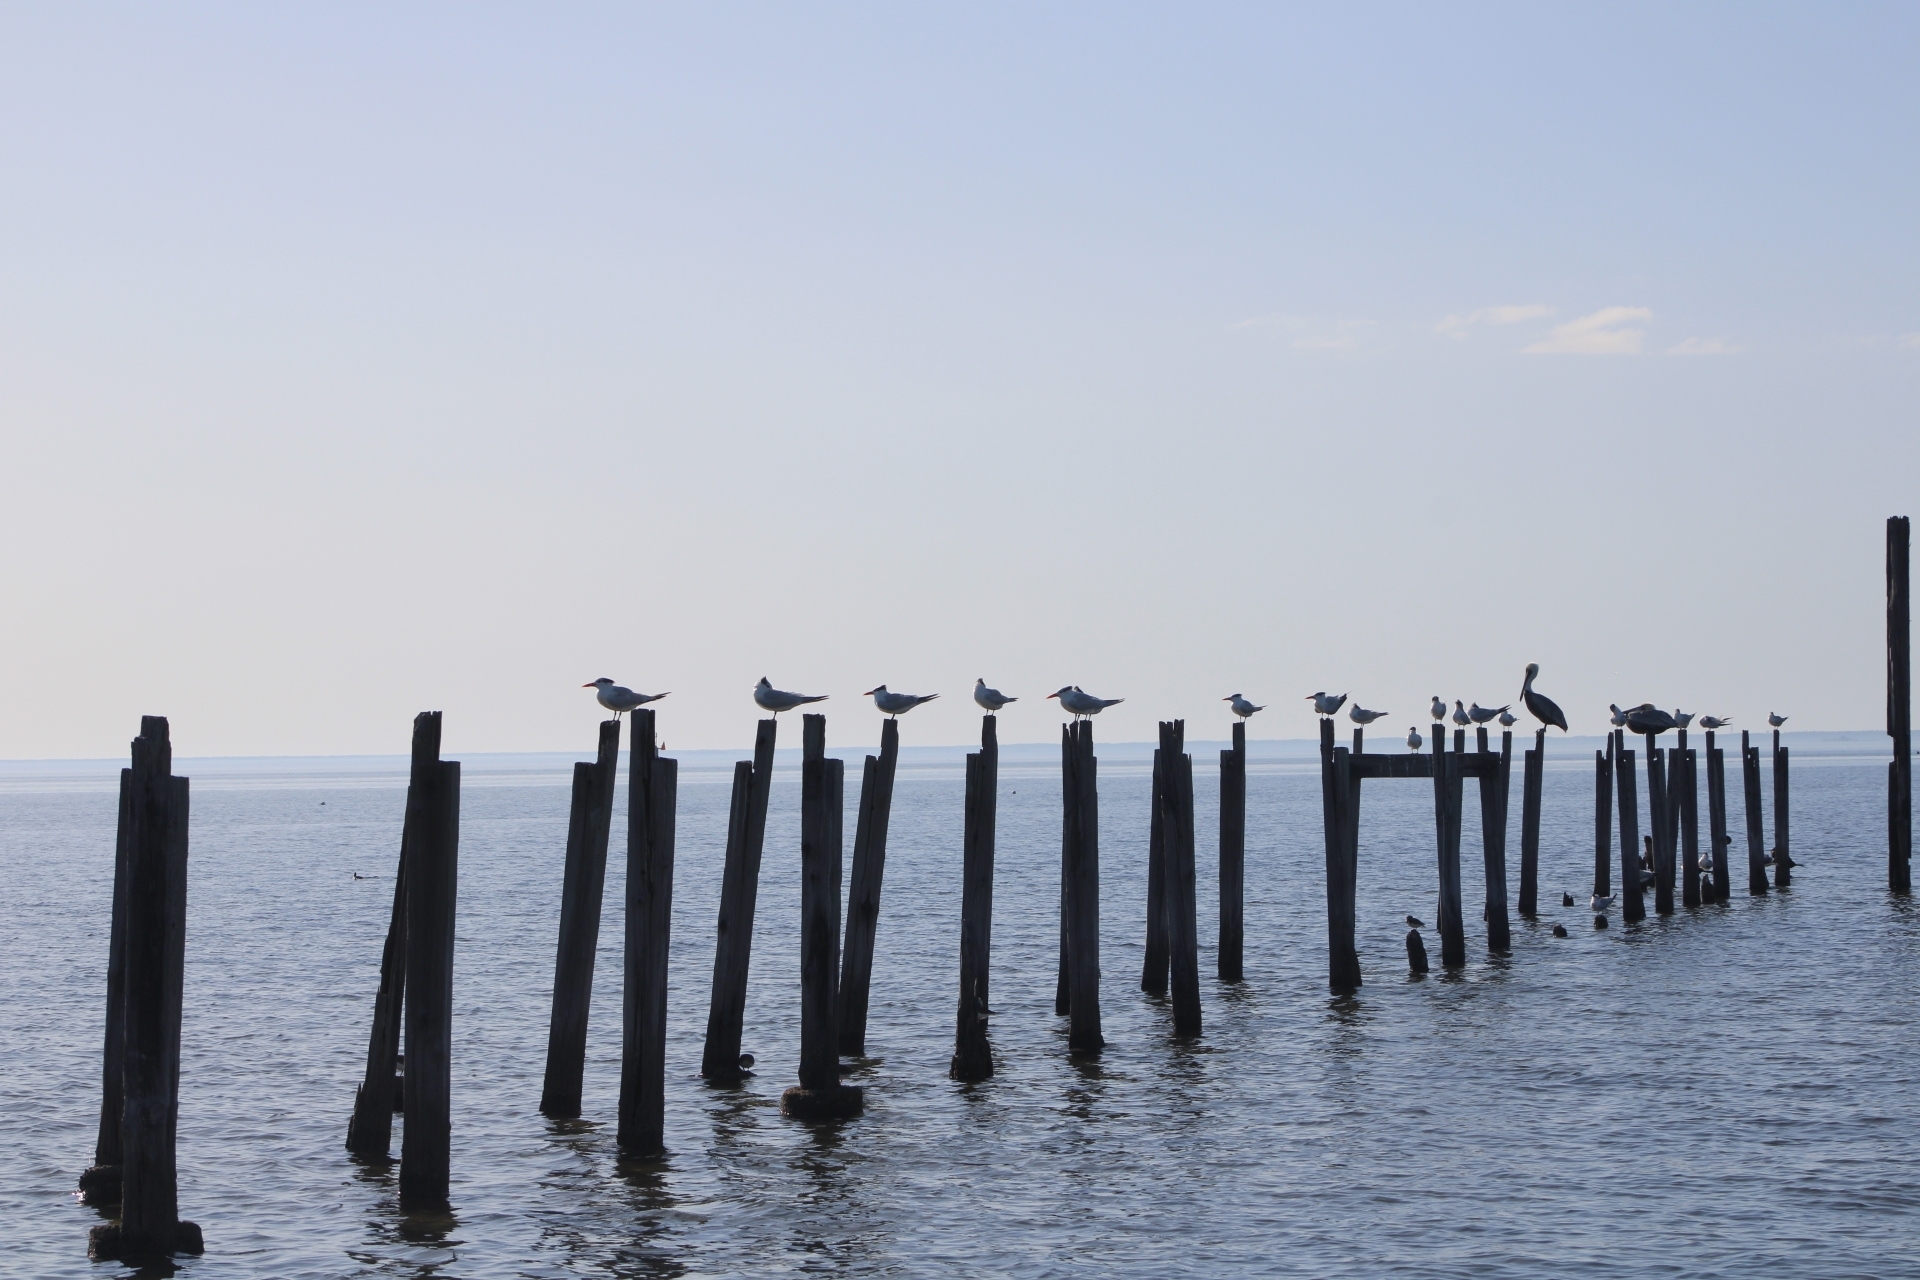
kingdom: Animalia
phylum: Chordata
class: Aves
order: Charadriiformes
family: Laridae
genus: Thalasseus
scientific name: Thalasseus maximus
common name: Royal tern
